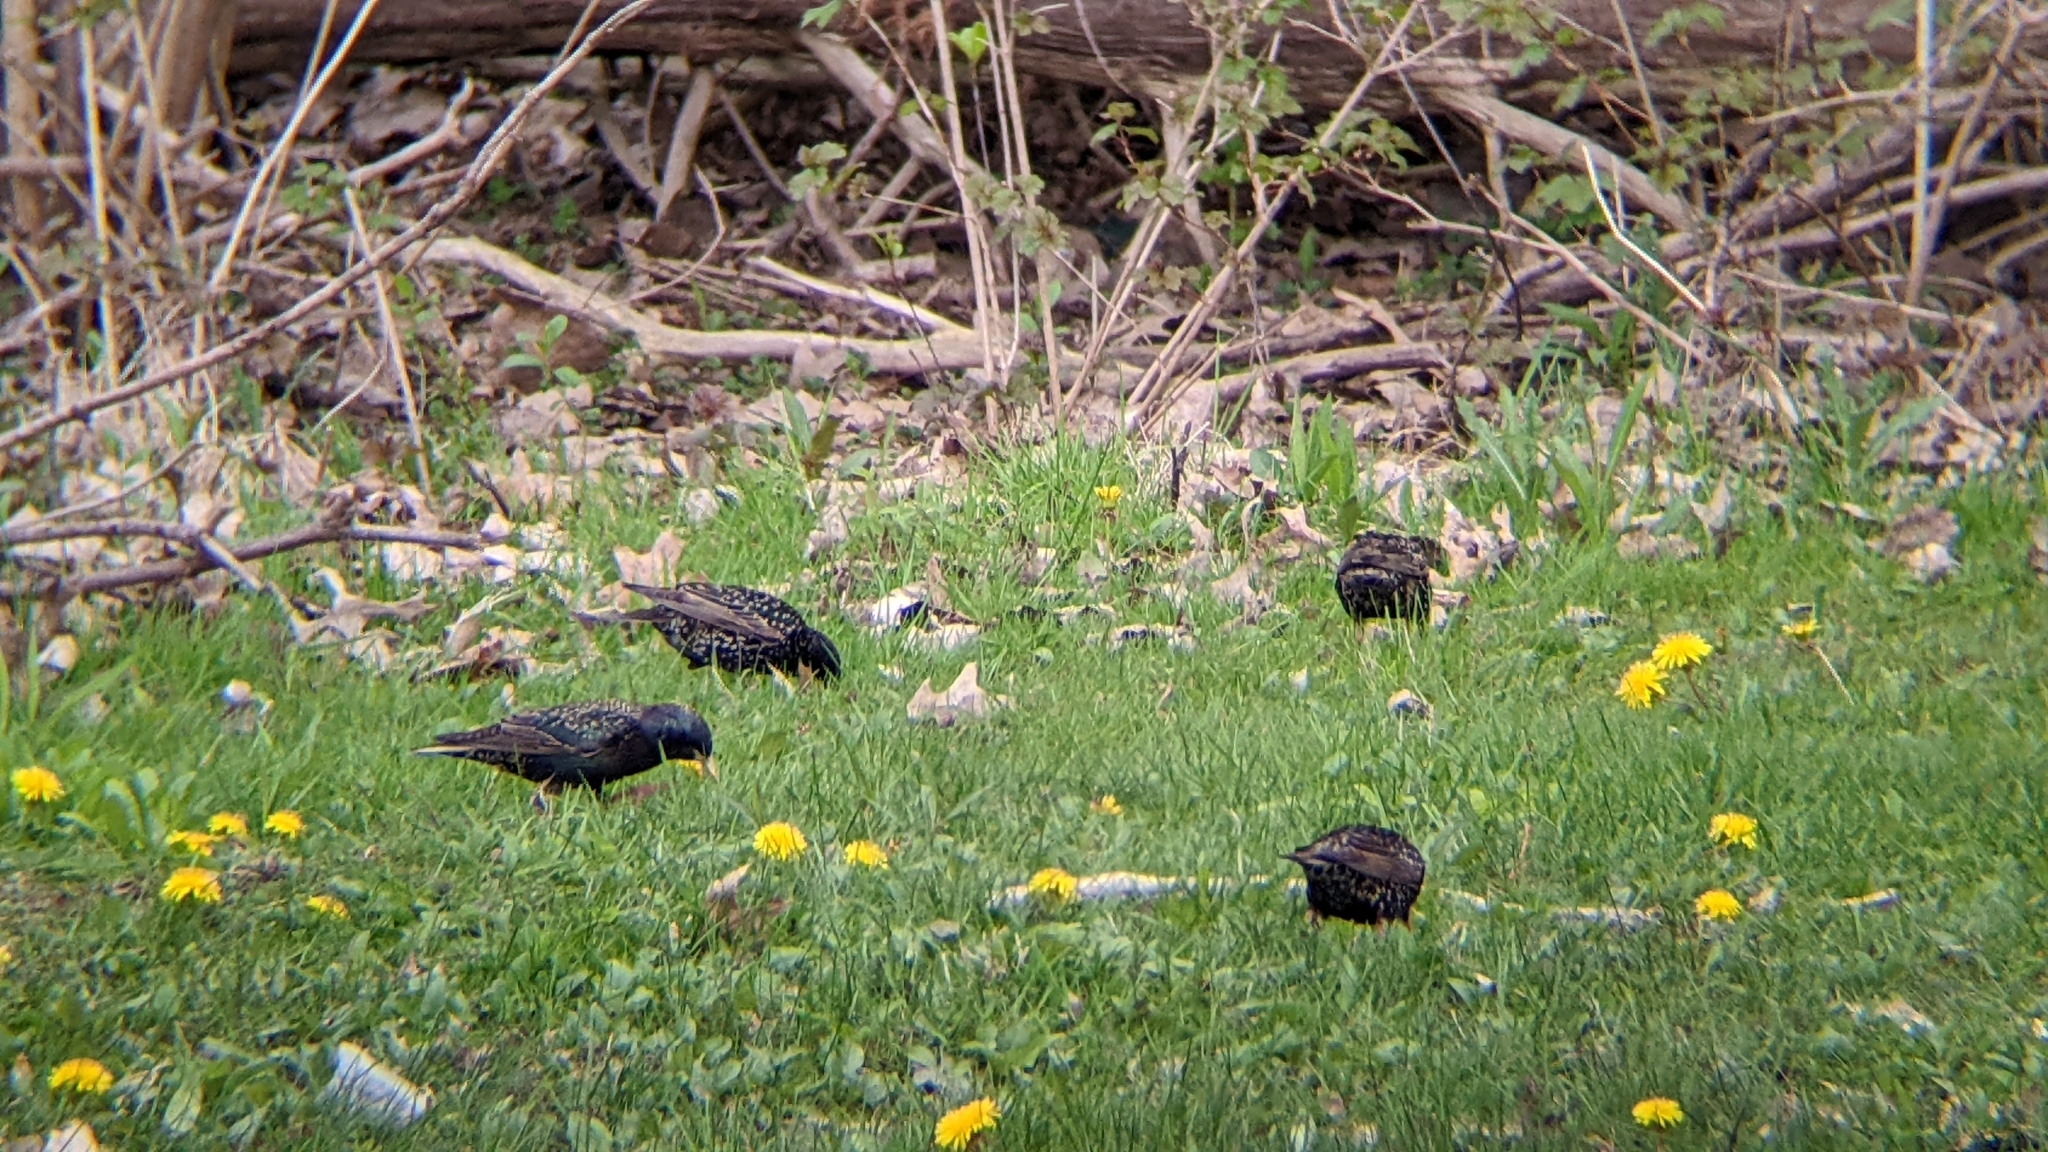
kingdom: Animalia
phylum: Chordata
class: Aves
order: Passeriformes
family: Sturnidae
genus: Sturnus
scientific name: Sturnus vulgaris
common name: Common starling
